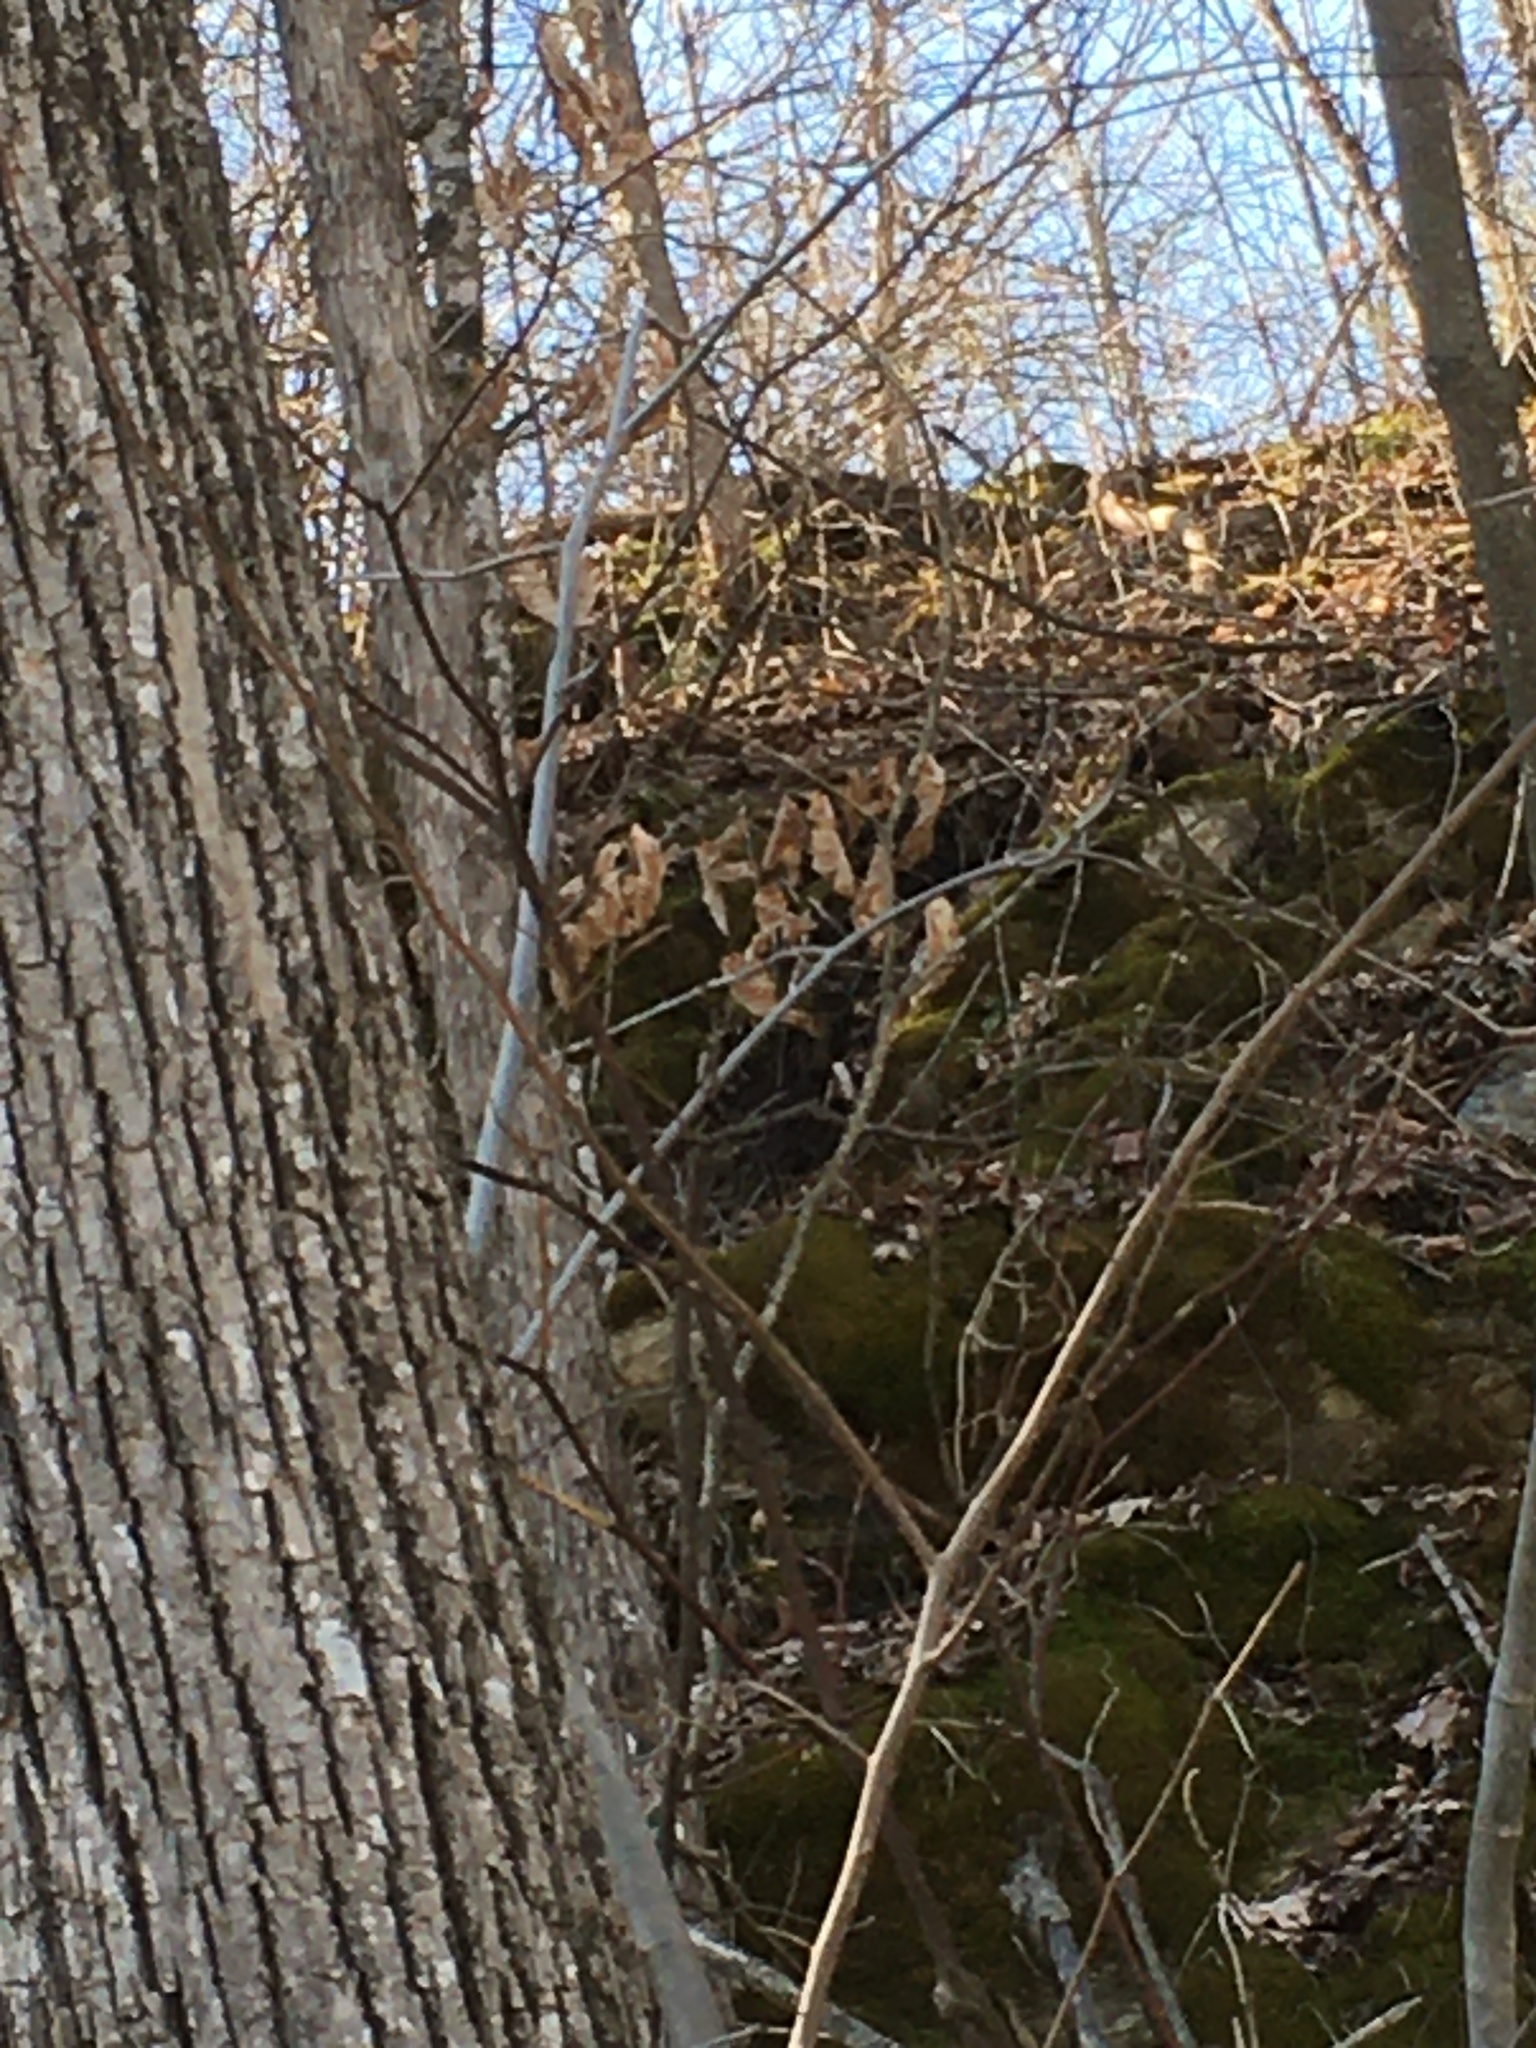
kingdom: Plantae
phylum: Tracheophyta
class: Magnoliopsida
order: Fagales
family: Betulaceae
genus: Ostrya
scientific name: Ostrya virginiana
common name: Ironwood
